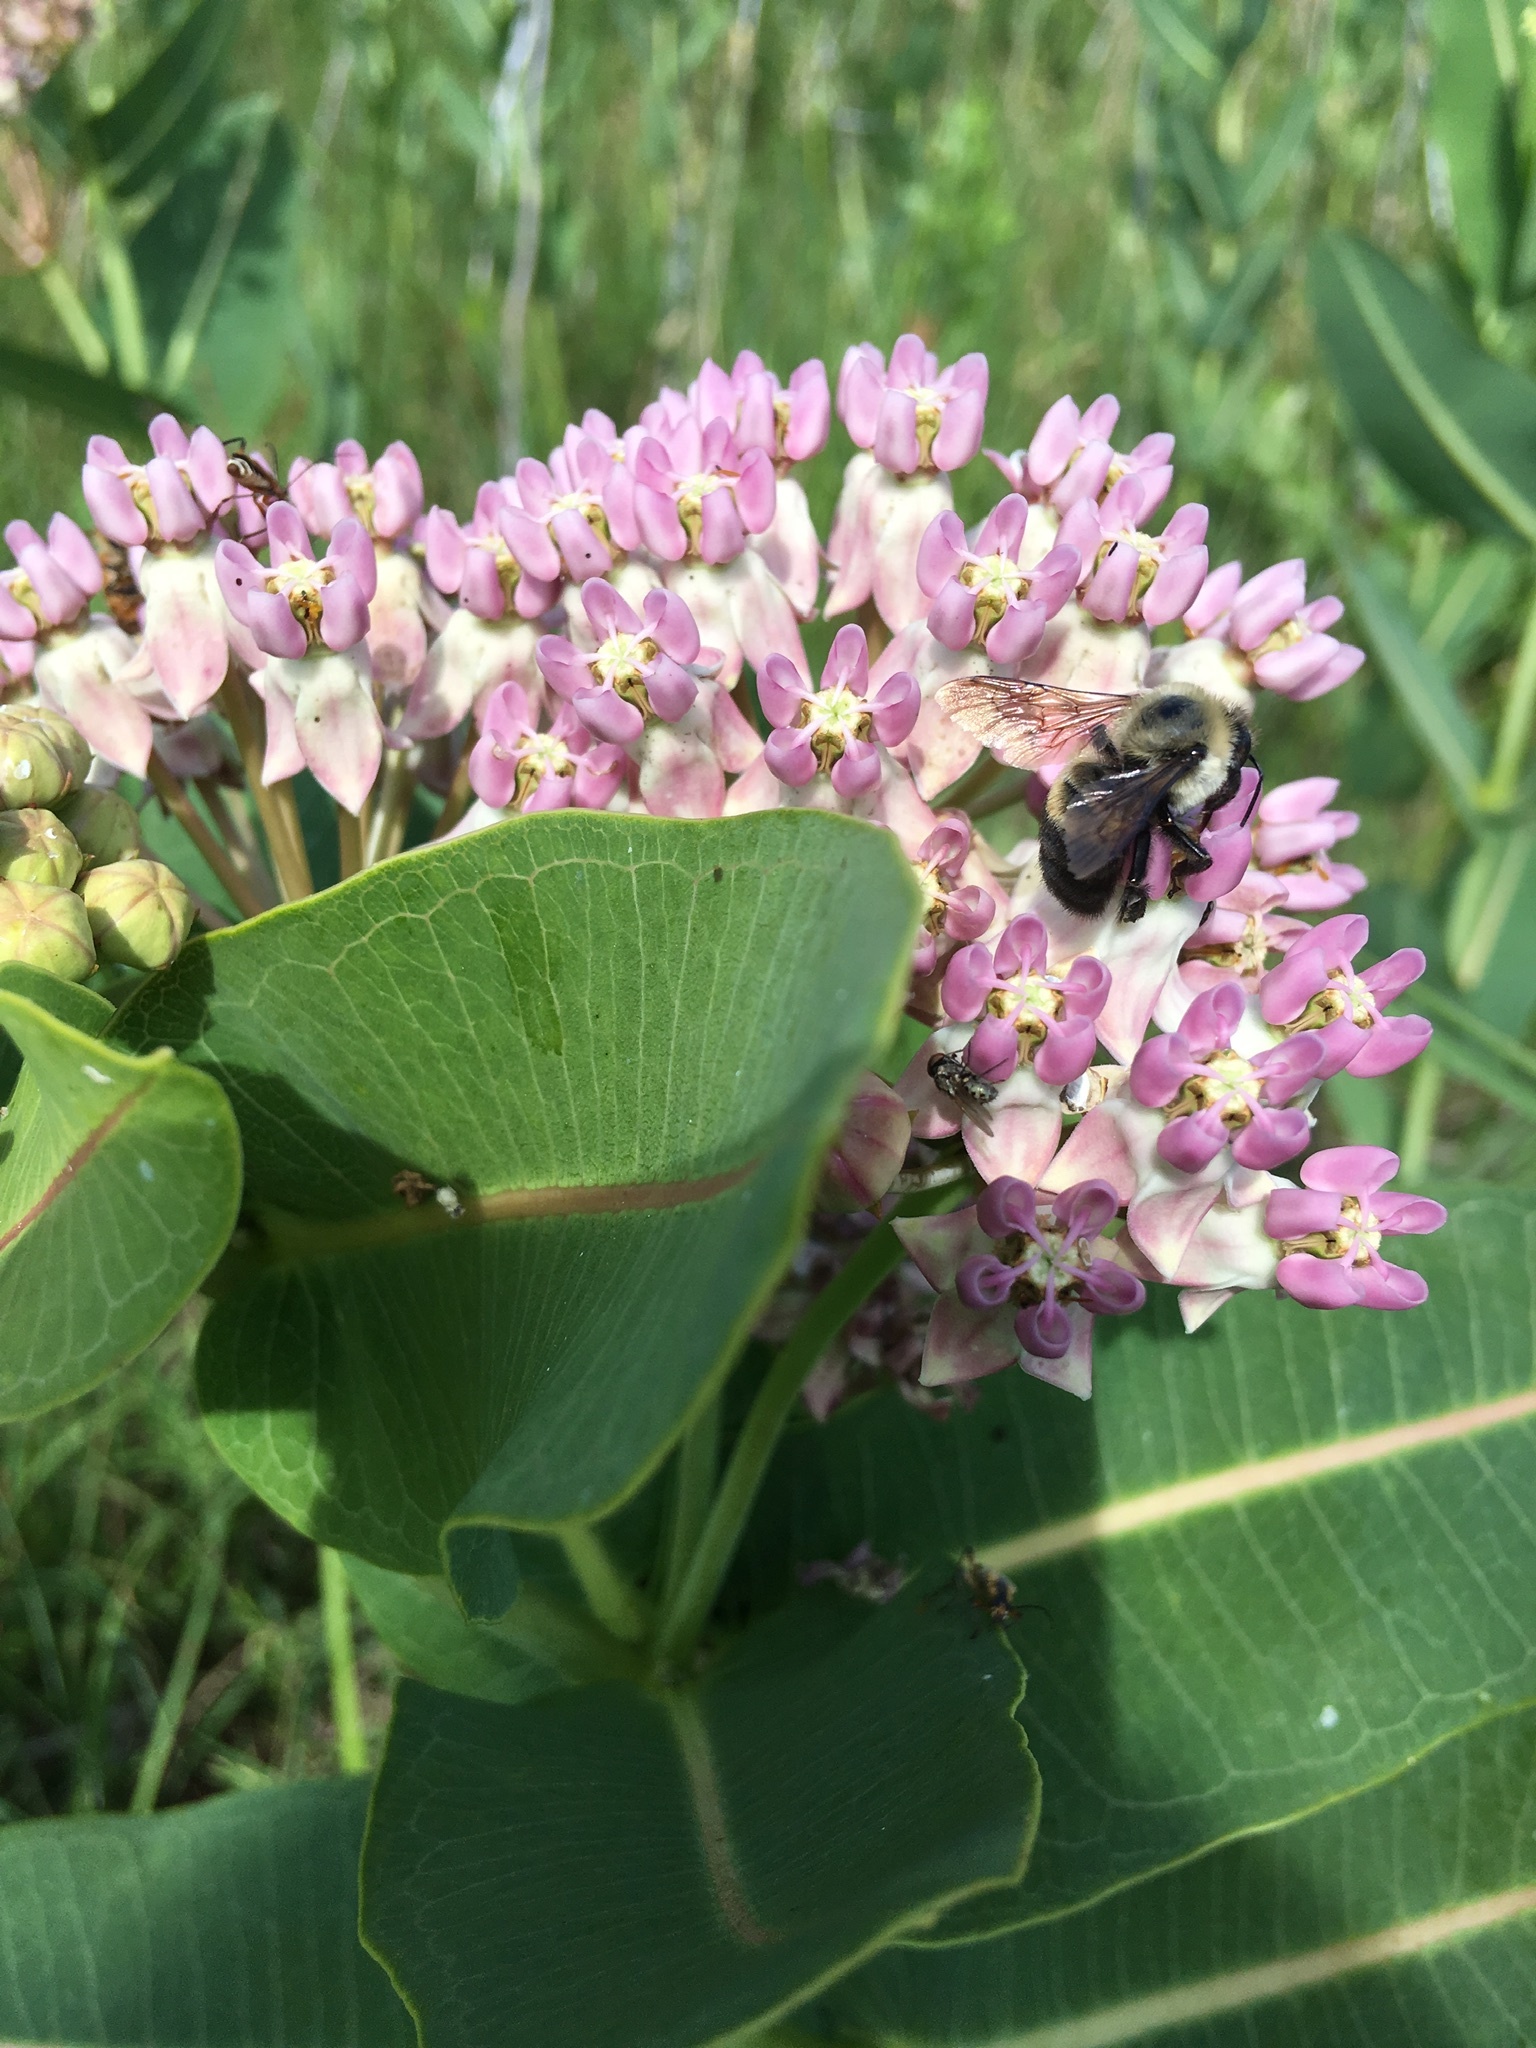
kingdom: Animalia
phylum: Arthropoda
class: Insecta
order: Hymenoptera
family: Apidae
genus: Bombus
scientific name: Bombus griseocollis
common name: Brown-belted bumble bee
